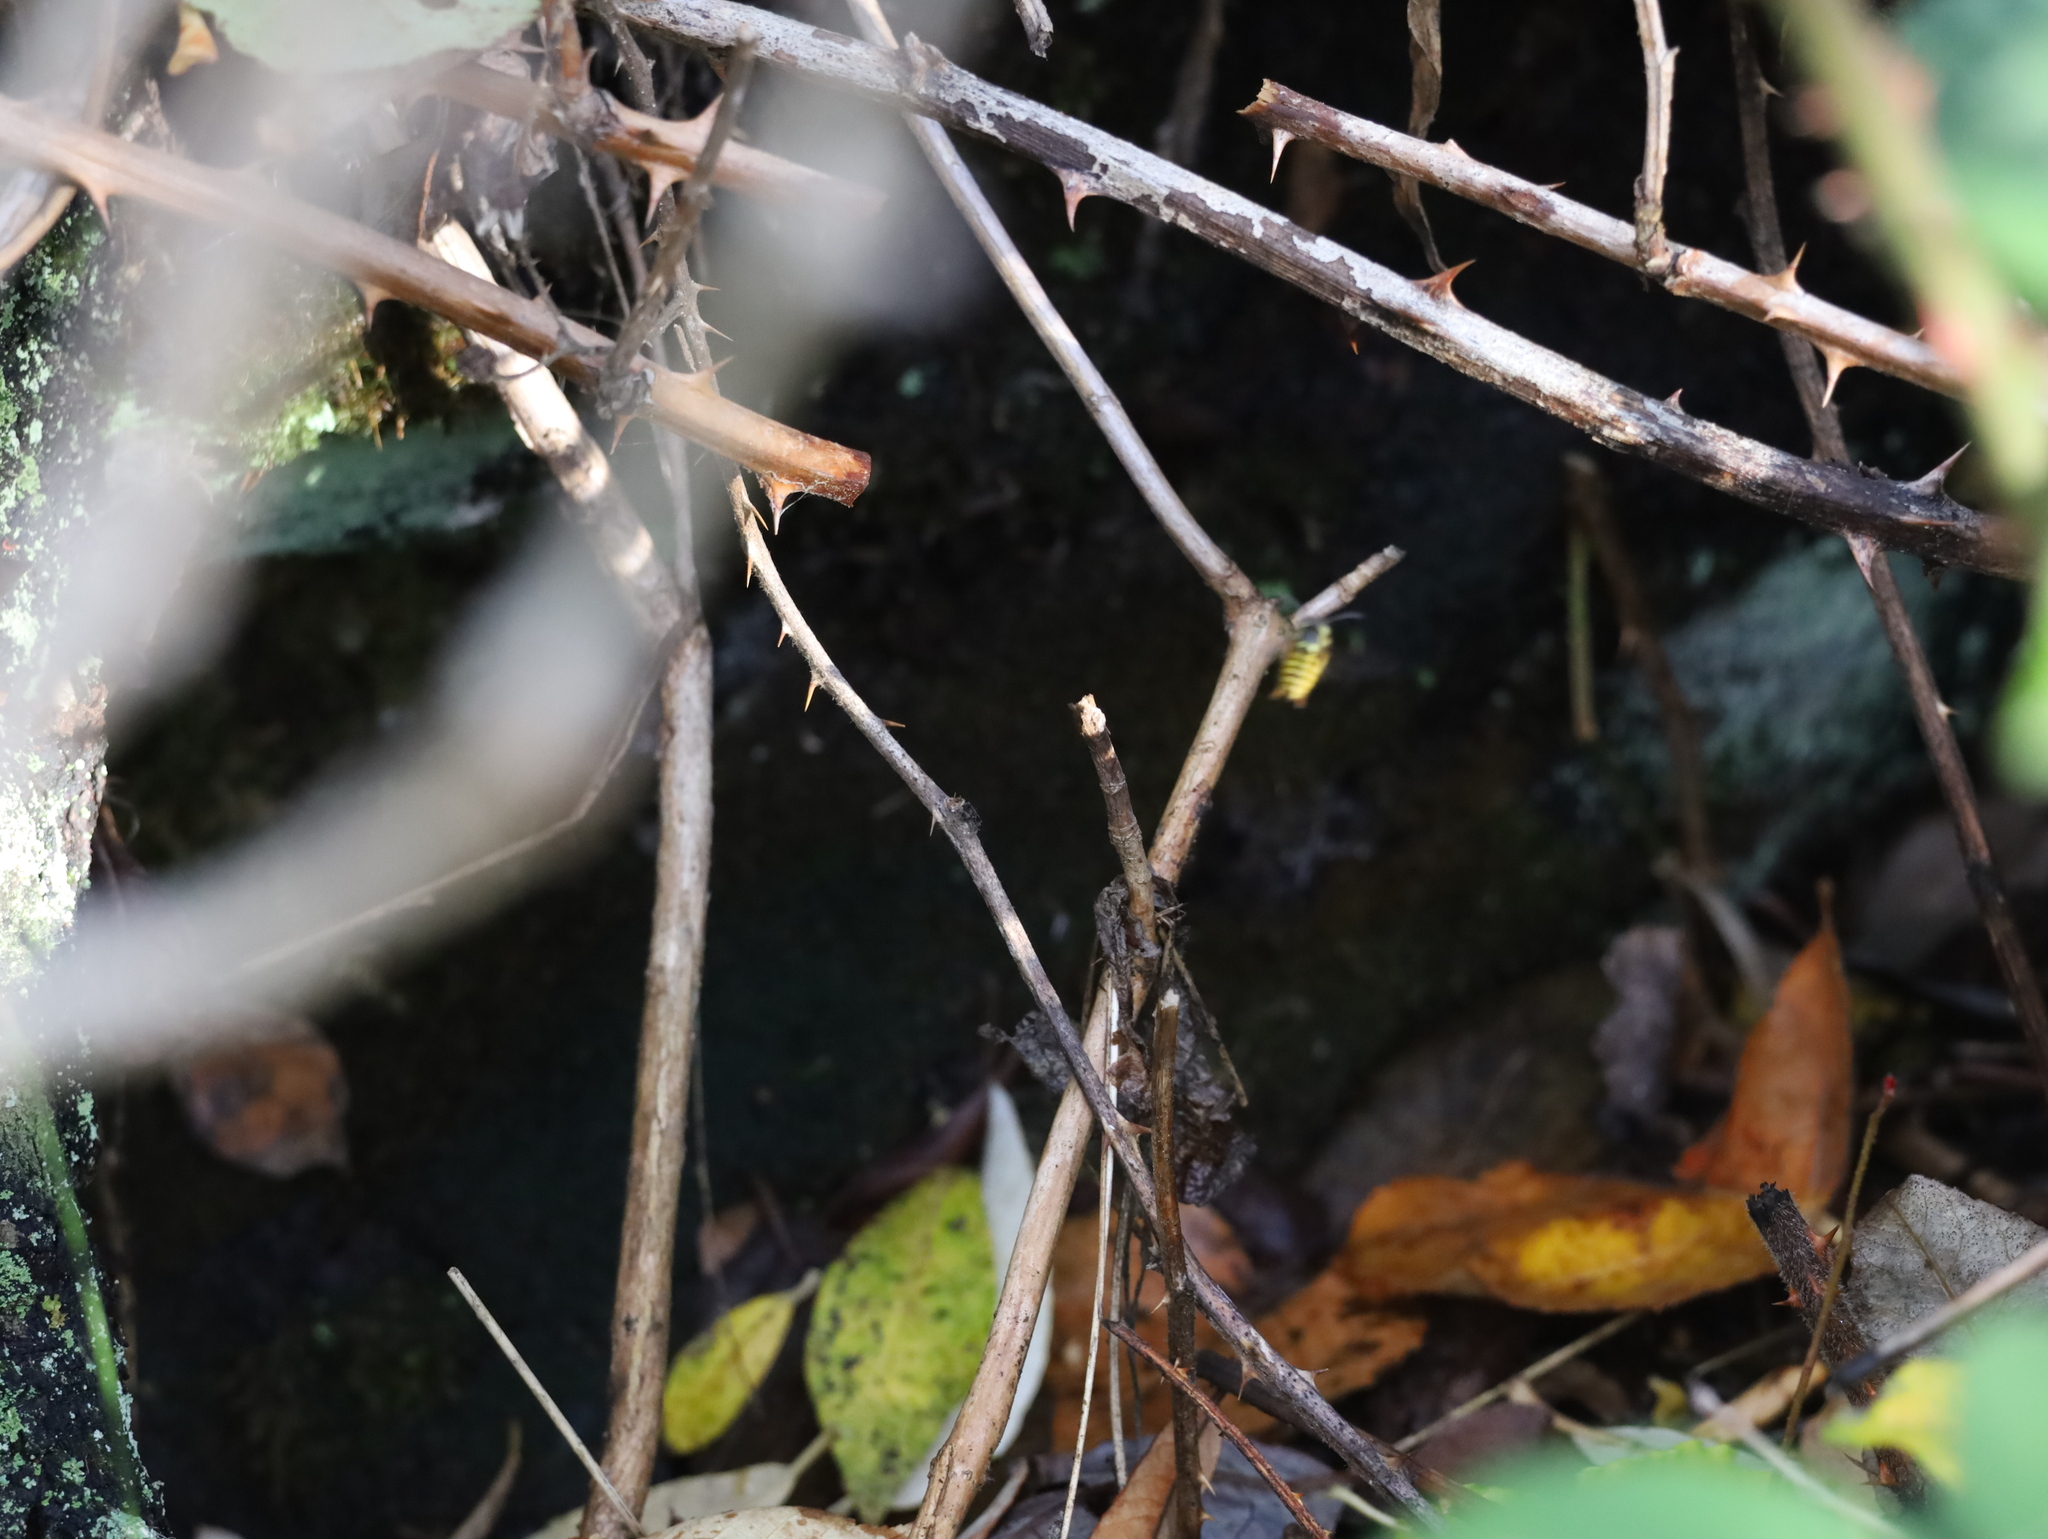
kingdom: Animalia
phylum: Arthropoda
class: Insecta
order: Hymenoptera
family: Vespidae
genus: Vespula
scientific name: Vespula pensylvanica
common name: Western yellowjacket
